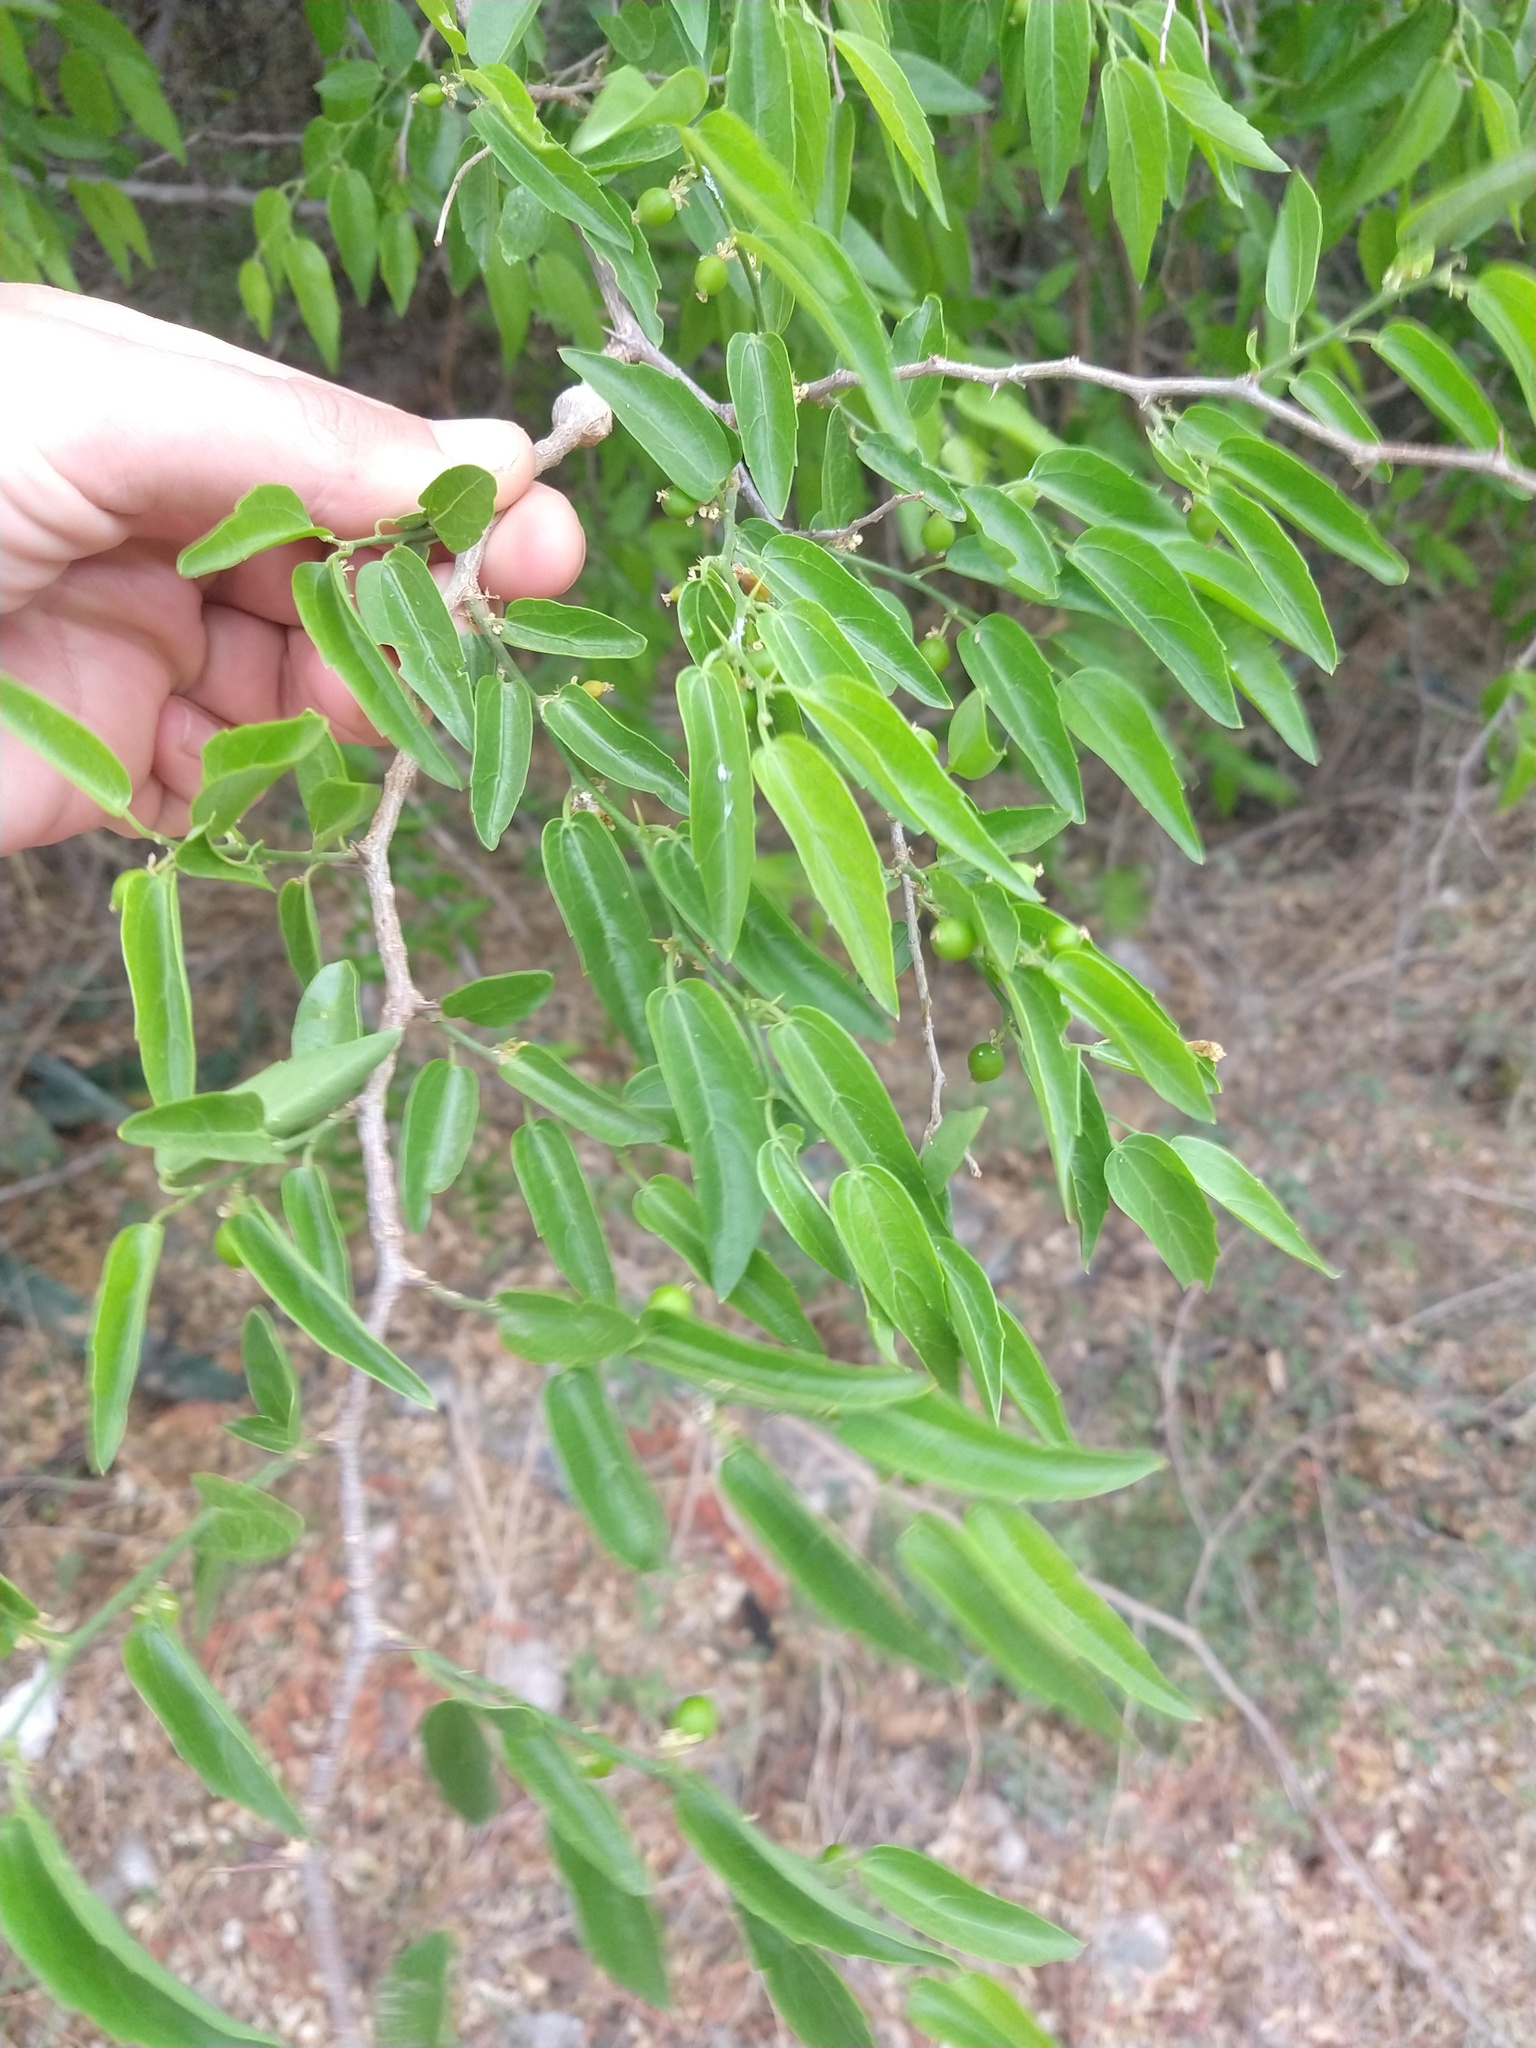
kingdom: Plantae
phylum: Tracheophyta
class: Magnoliopsida
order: Rosales
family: Cannabaceae
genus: Celtis
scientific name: Celtis tala
